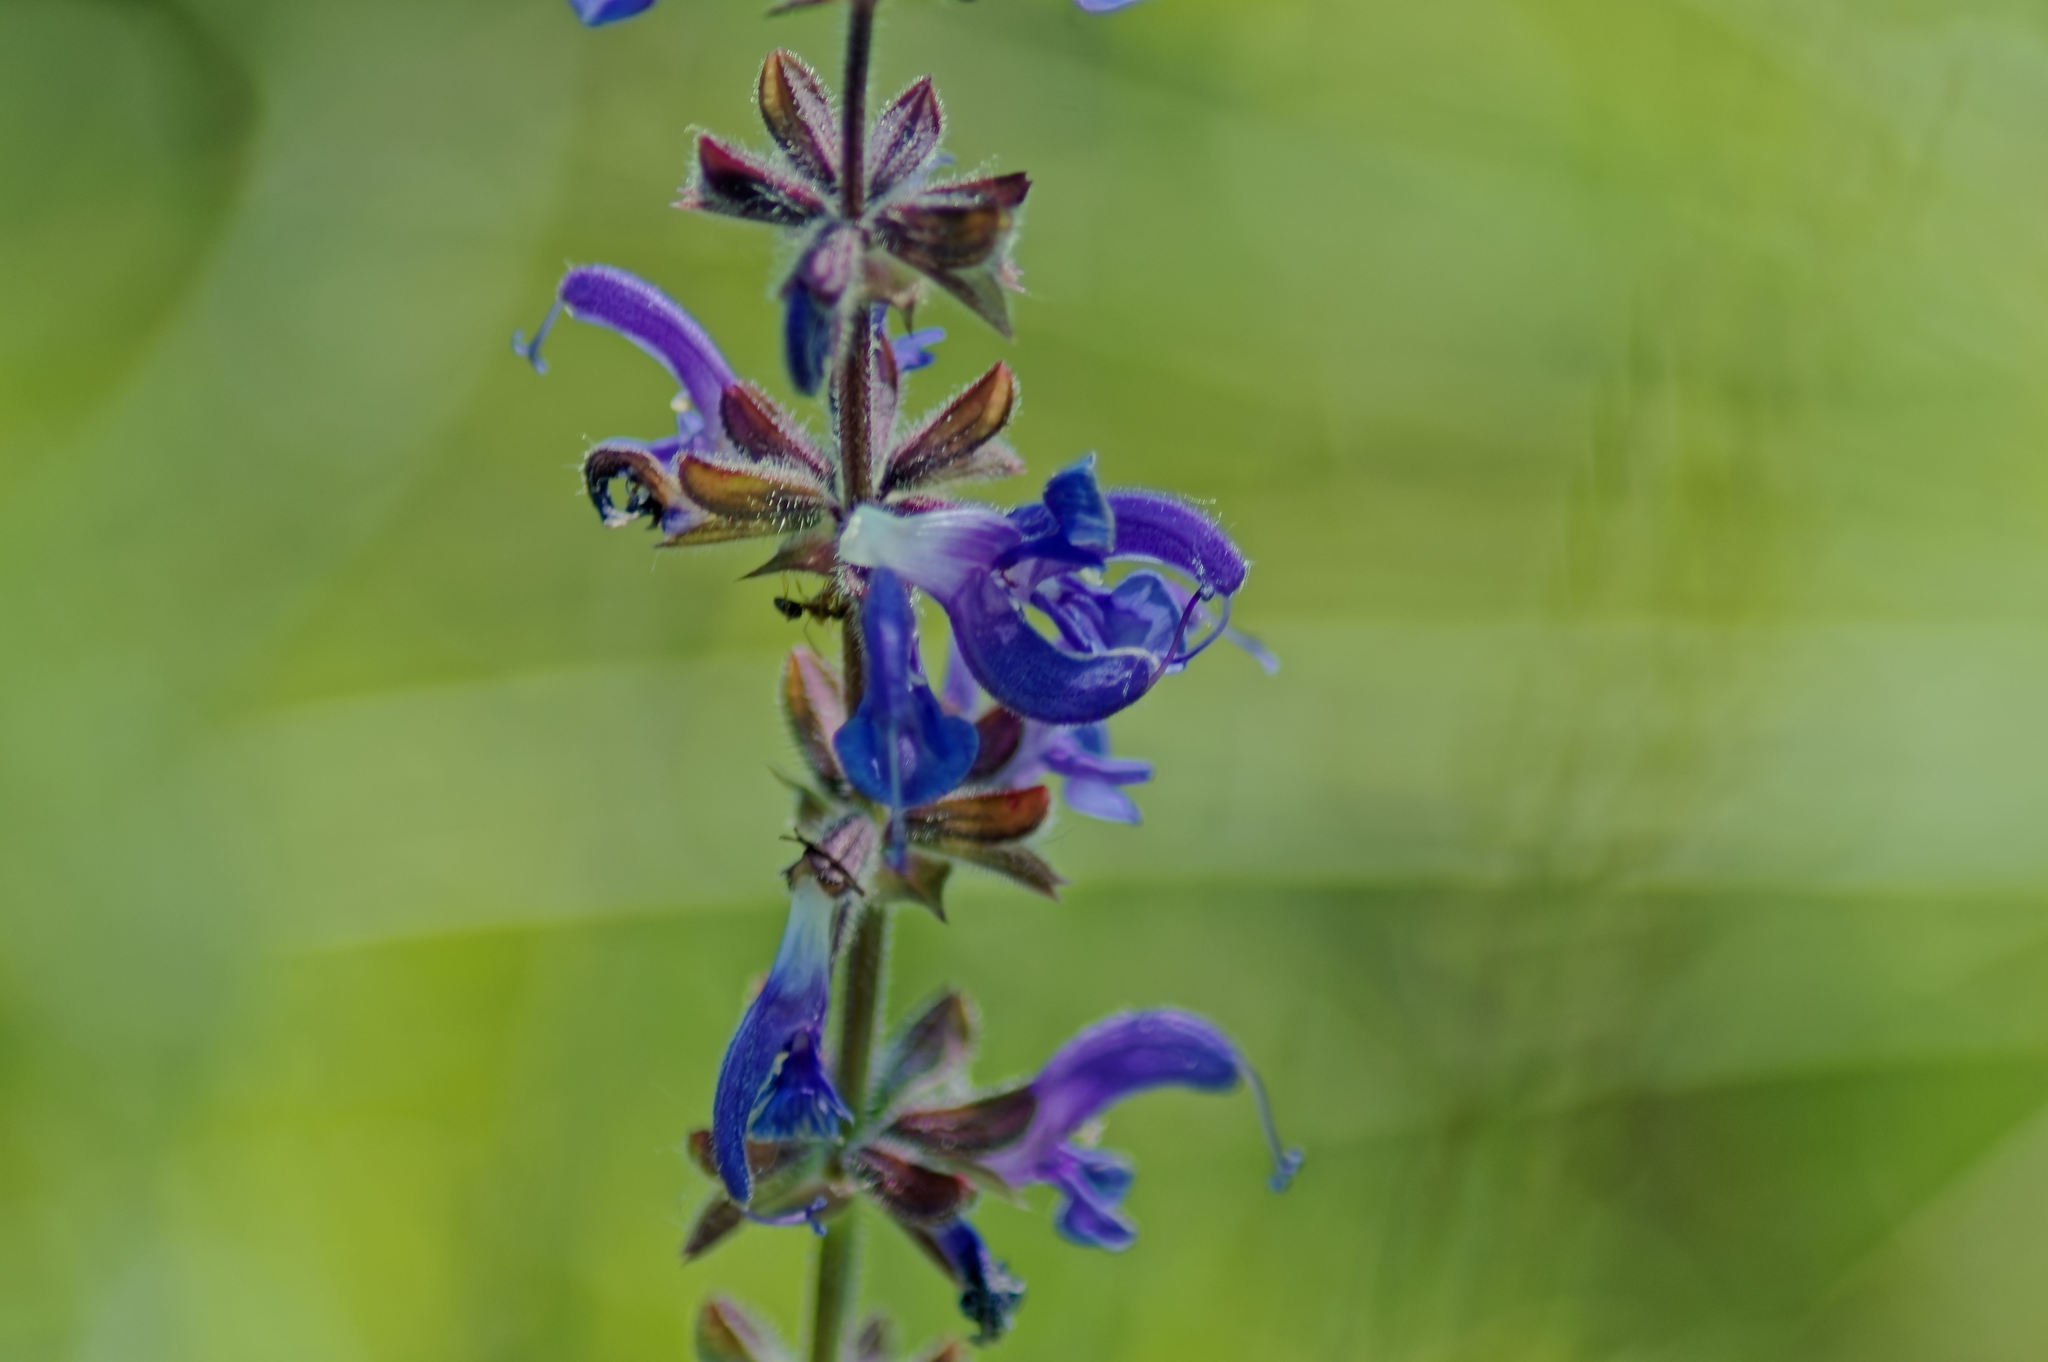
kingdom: Plantae
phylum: Tracheophyta
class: Magnoliopsida
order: Lamiales
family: Lamiaceae
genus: Salvia
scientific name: Salvia pratensis
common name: Meadow sage
